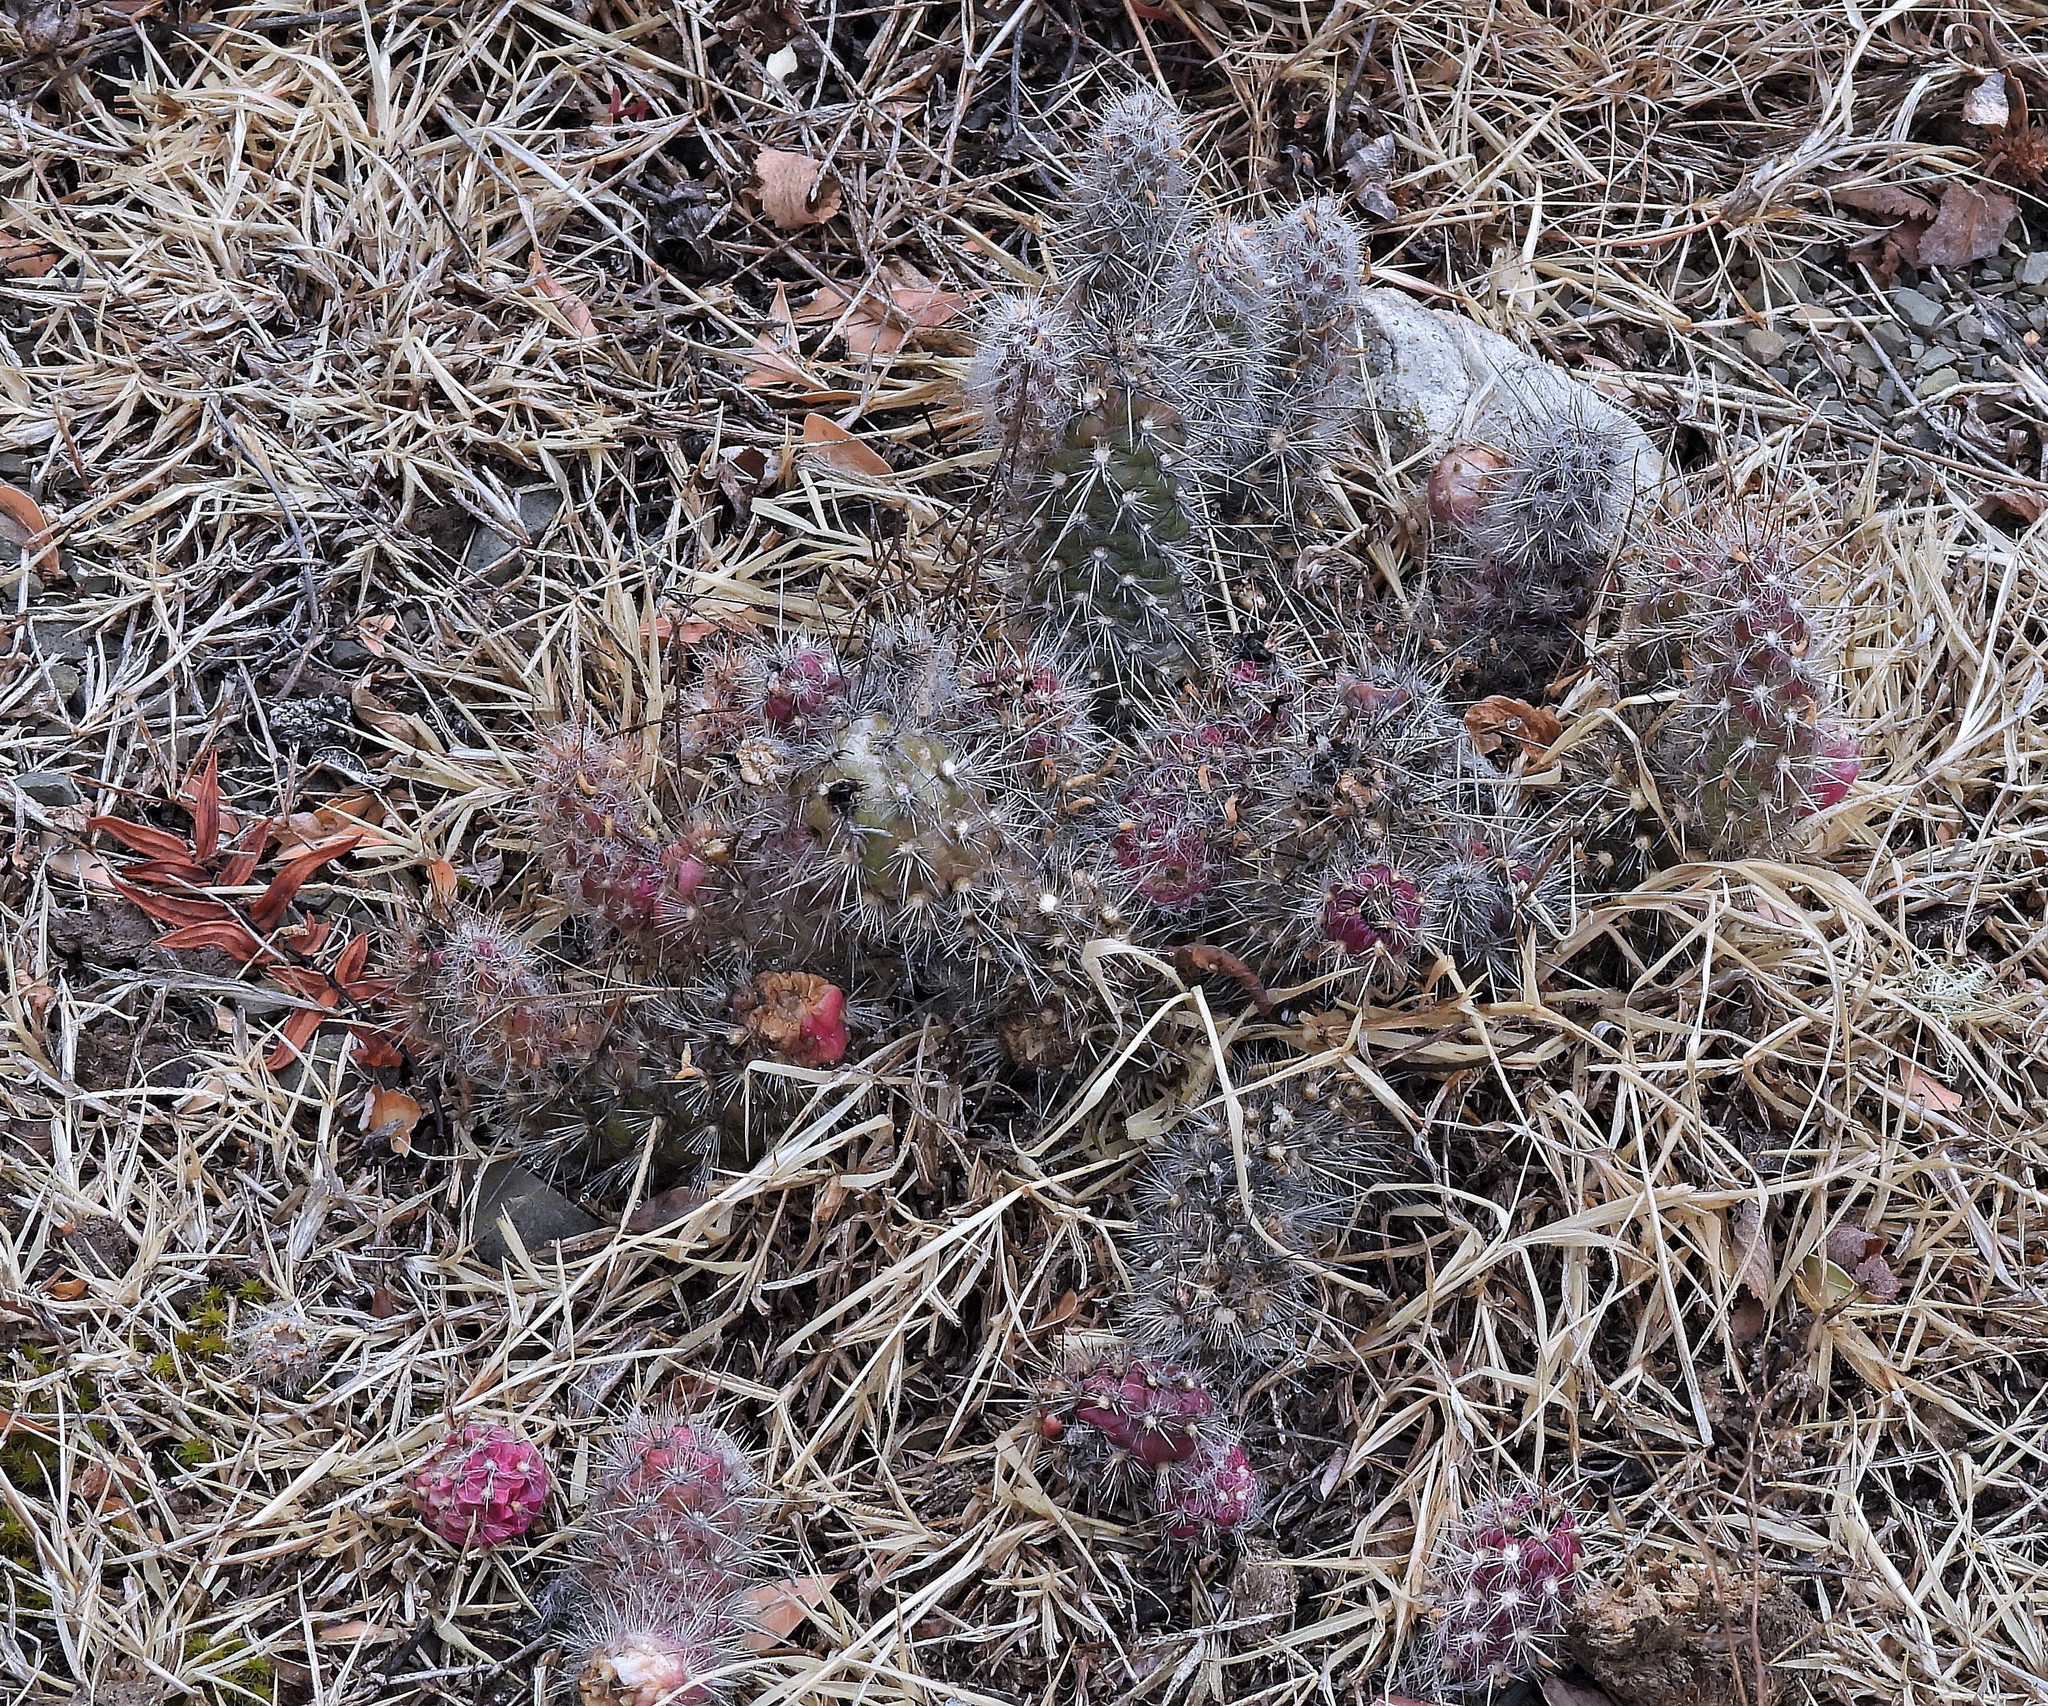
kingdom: Plantae
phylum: Tracheophyta
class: Magnoliopsida
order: Caryophyllales
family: Cactaceae
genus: Austrocylindropuntia
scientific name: Austrocylindropuntia shaferi
